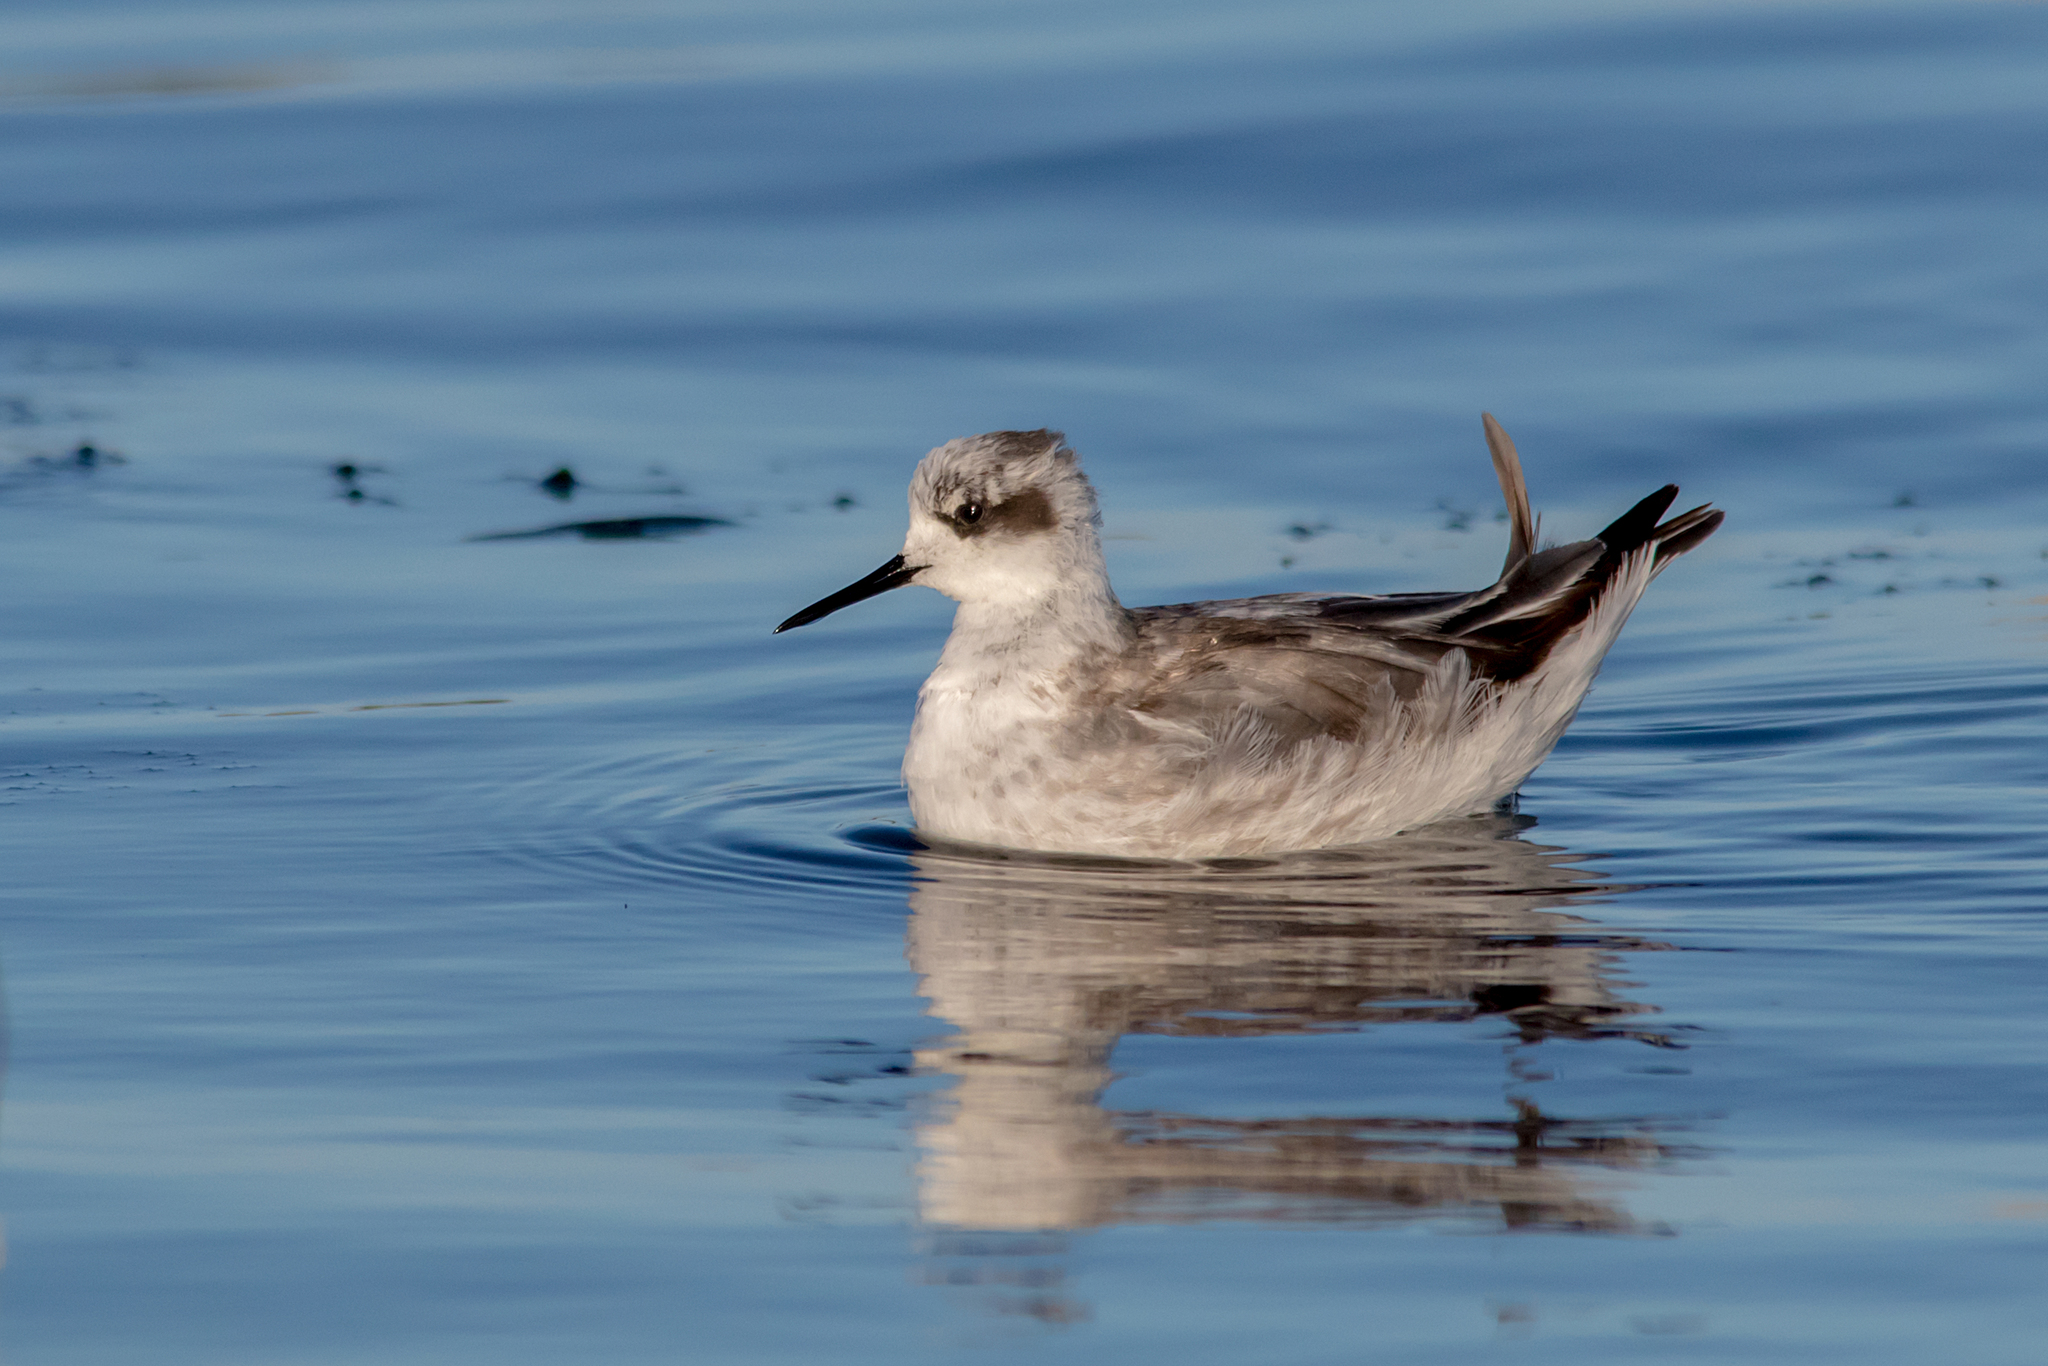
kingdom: Animalia
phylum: Chordata
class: Aves
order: Charadriiformes
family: Scolopacidae
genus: Phalaropus
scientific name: Phalaropus lobatus
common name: Red-necked phalarope
